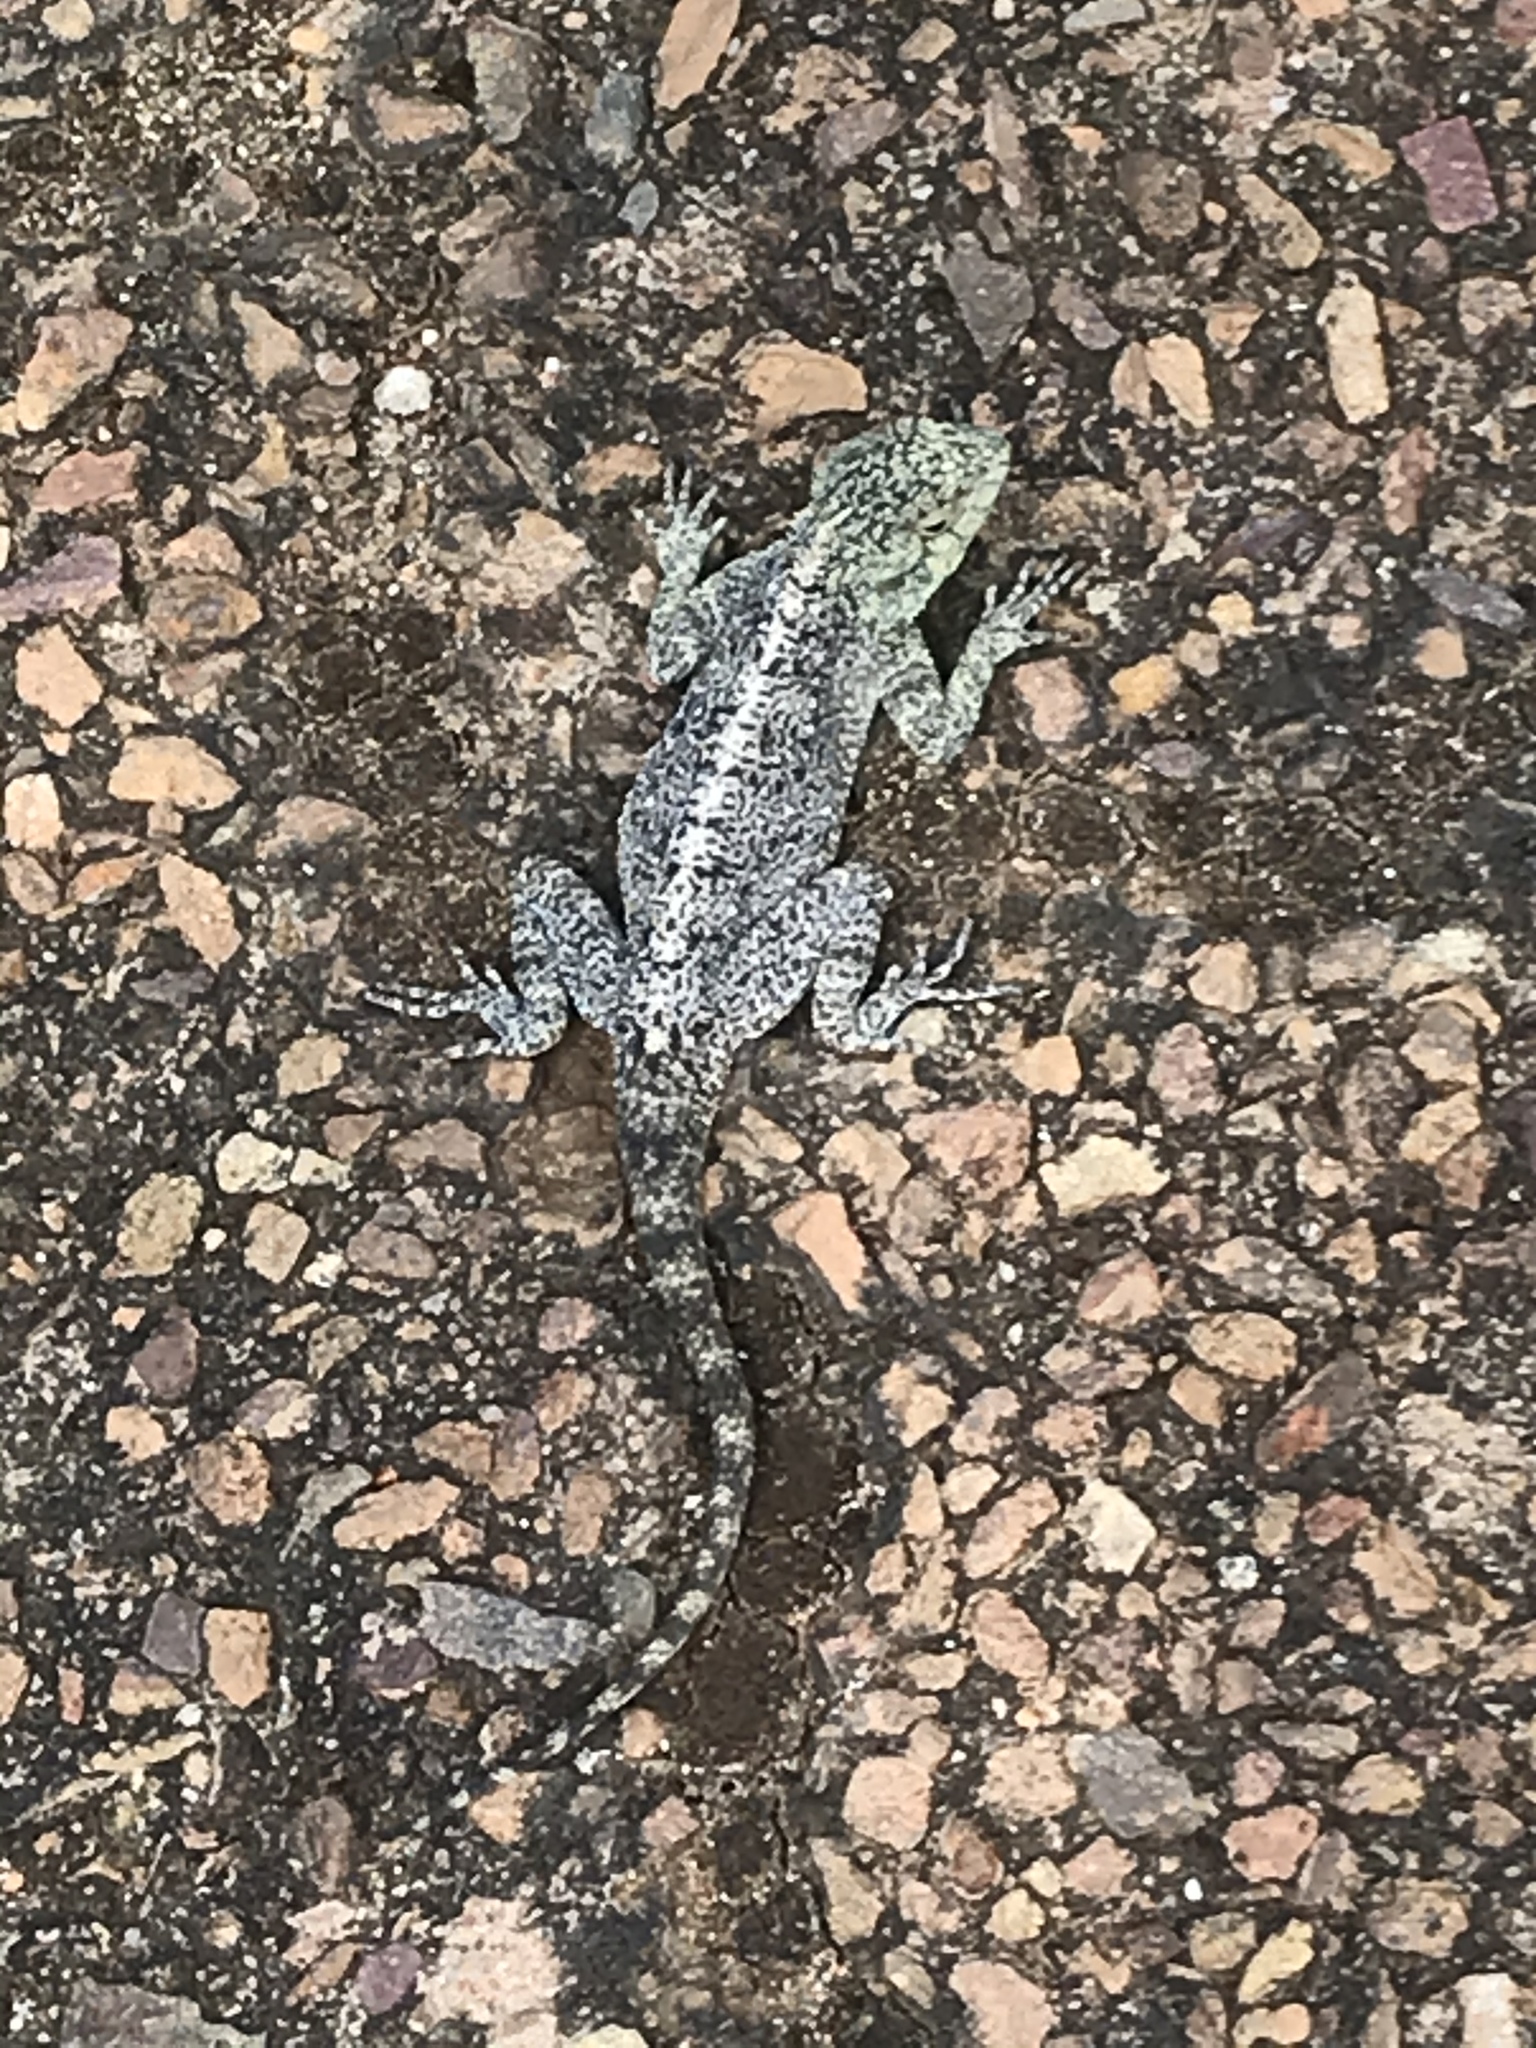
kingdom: Animalia
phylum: Chordata
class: Squamata
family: Agamidae
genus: Agama
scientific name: Agama atra
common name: Southern african rock agama
